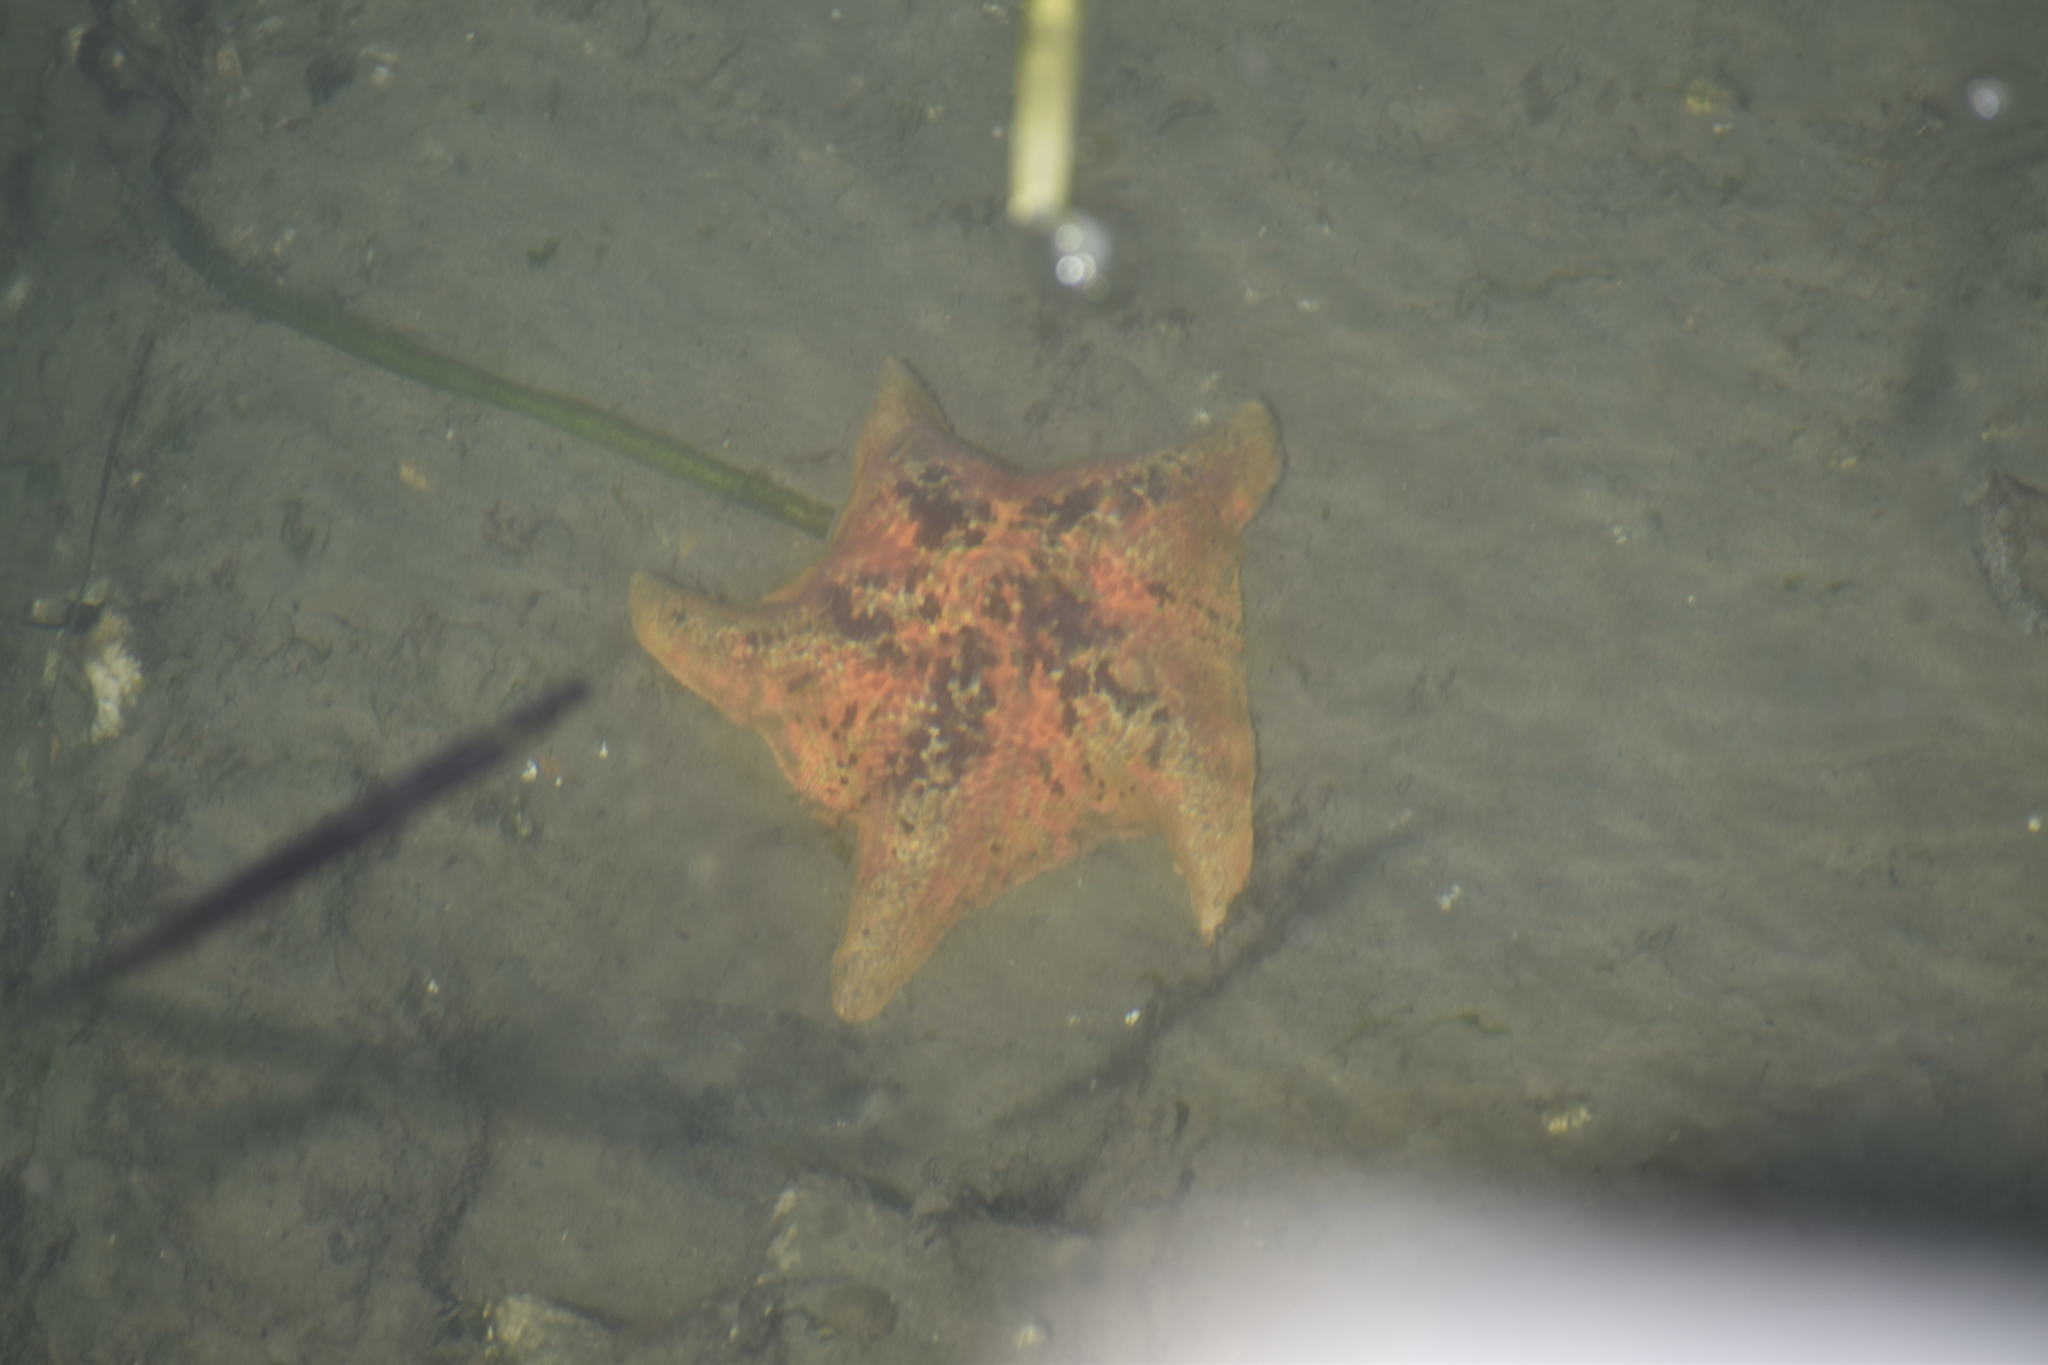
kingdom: Animalia
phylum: Echinodermata
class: Asteroidea
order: Valvatida
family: Asterinidae
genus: Patiria
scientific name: Patiria miniata
